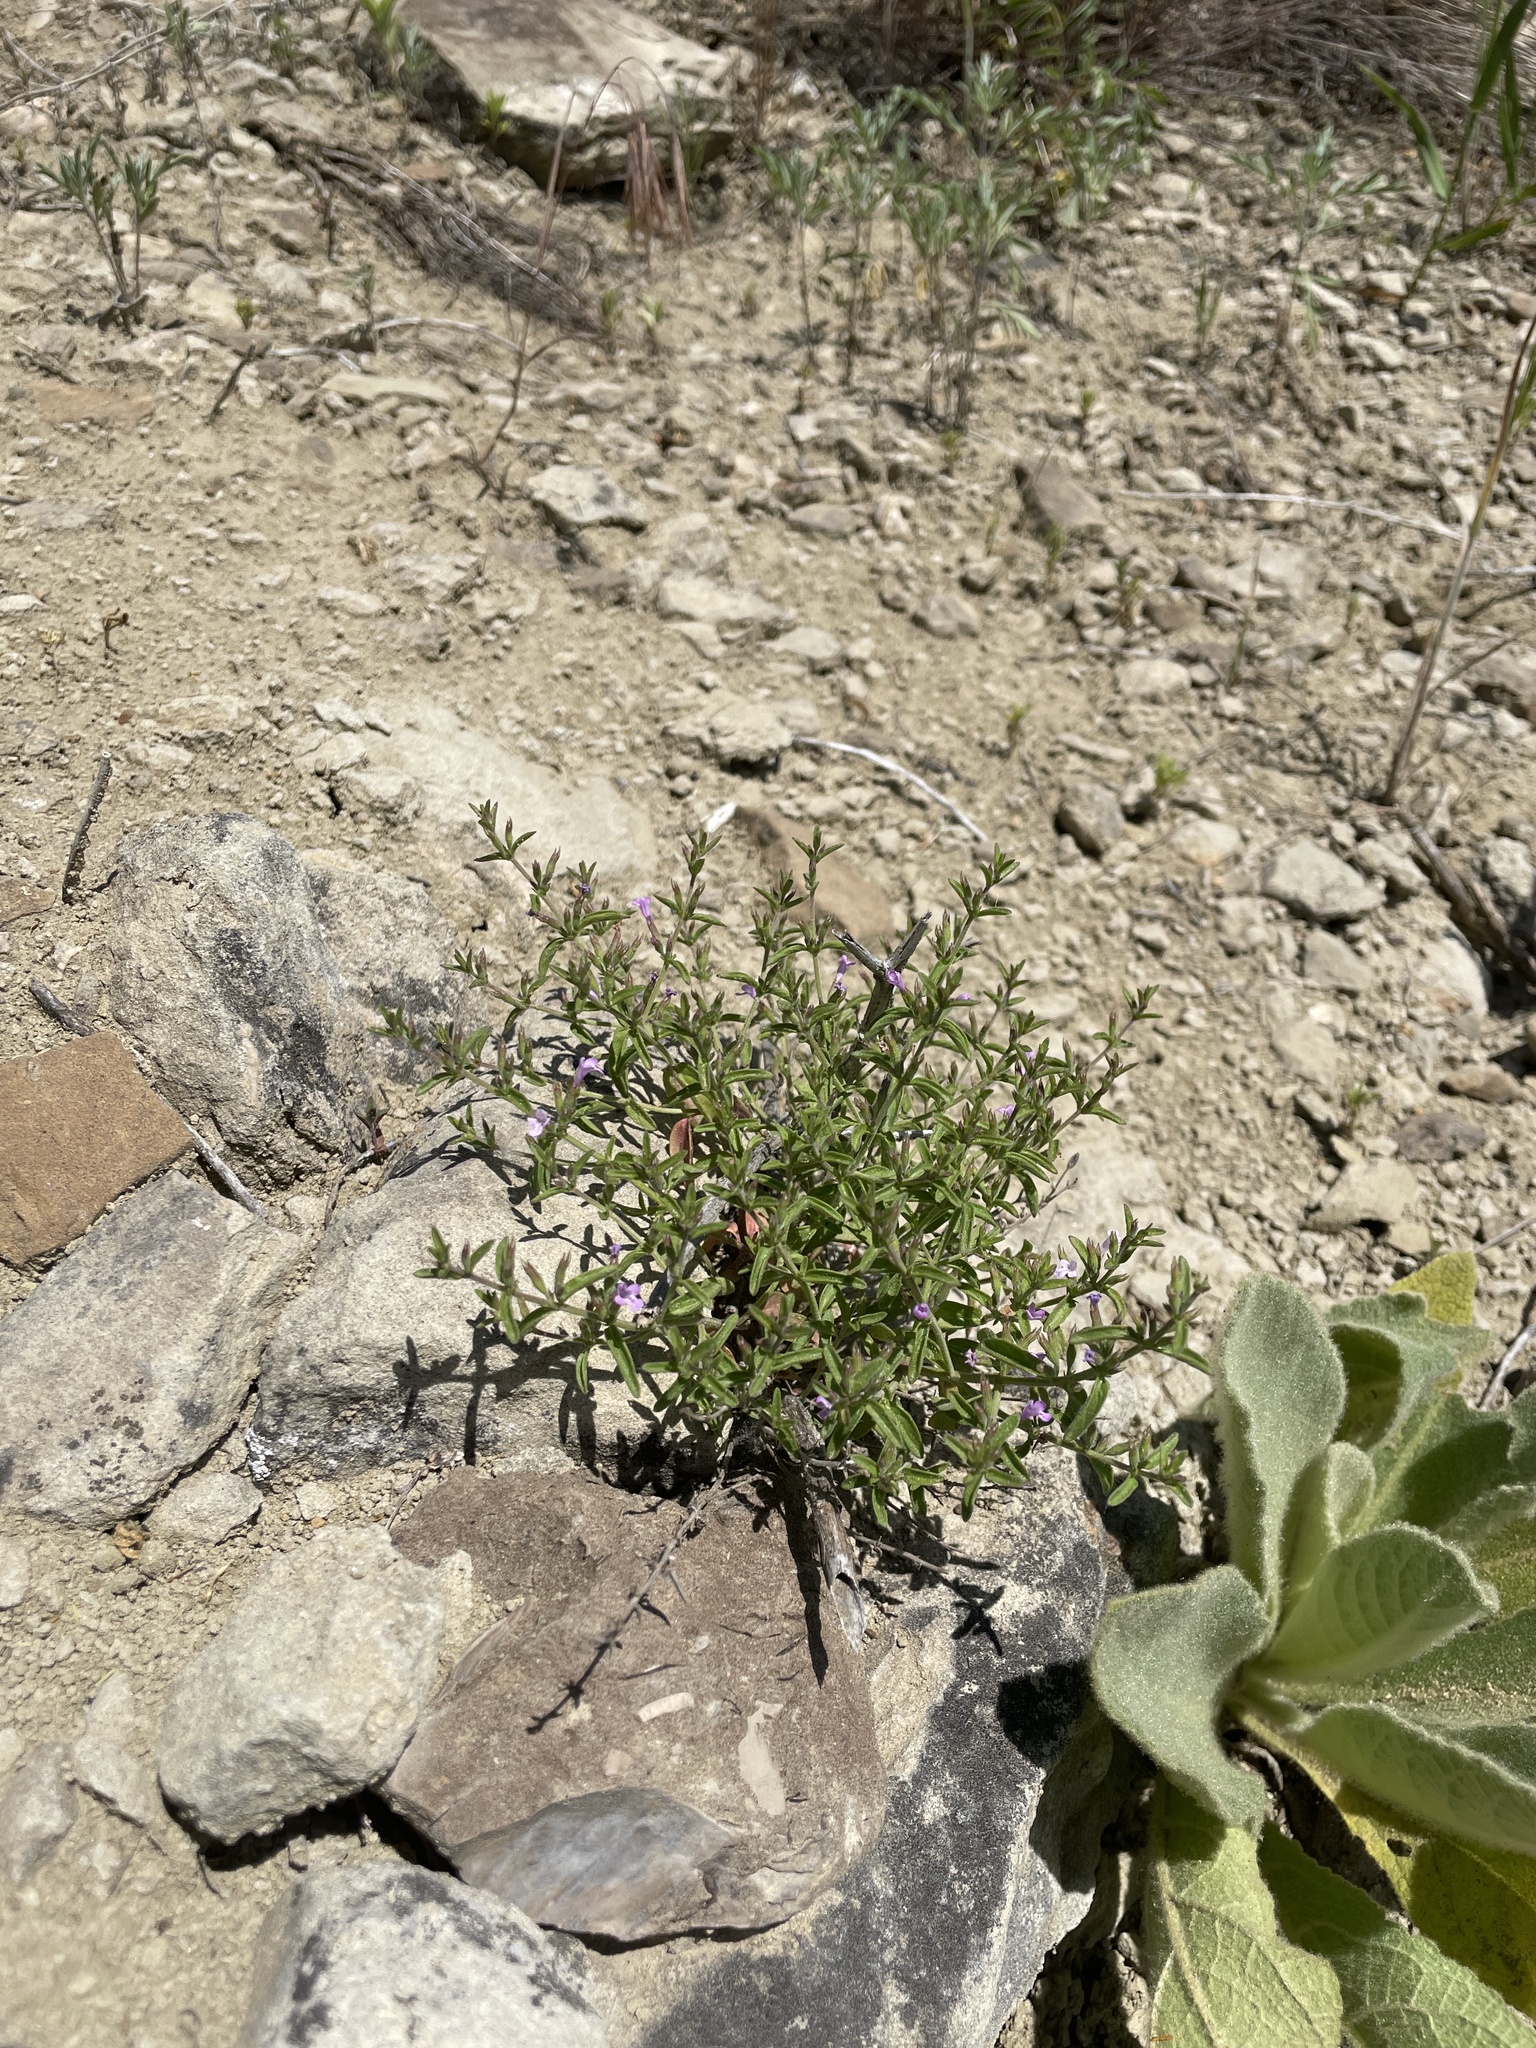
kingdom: Plantae
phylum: Tracheophyta
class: Magnoliopsida
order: Lamiales
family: Lamiaceae
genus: Hedeoma
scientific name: Hedeoma drummondii
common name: New mexico pennyroyal
